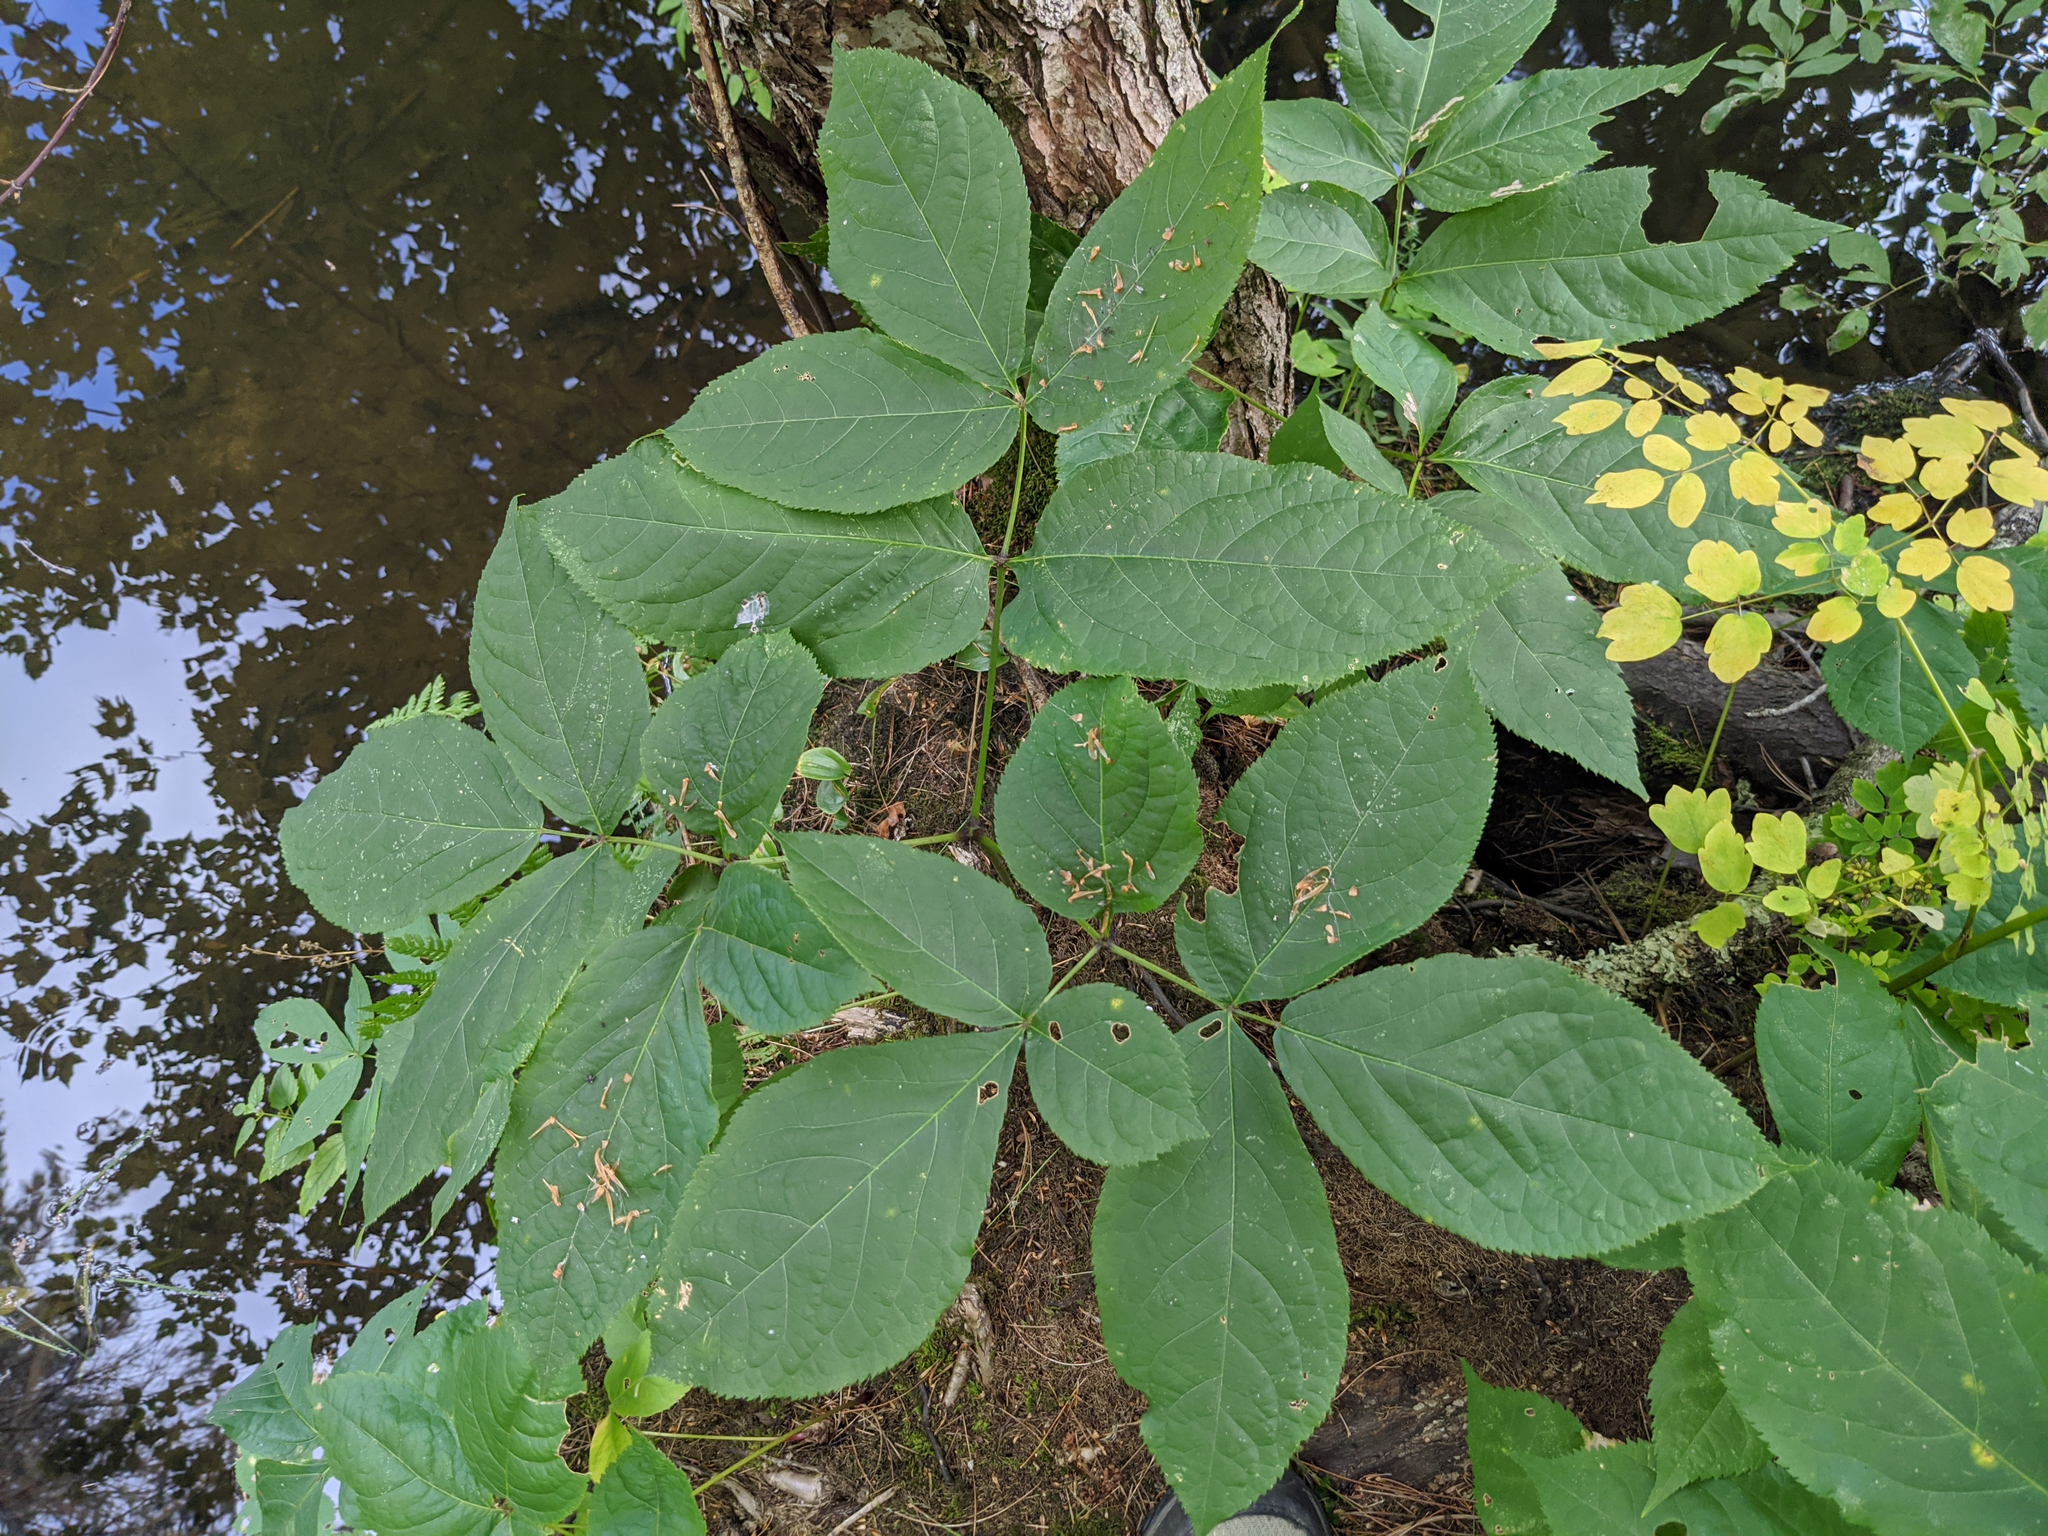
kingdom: Plantae
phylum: Tracheophyta
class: Magnoliopsida
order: Apiales
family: Araliaceae
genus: Aralia
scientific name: Aralia nudicaulis
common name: Wild sarsaparilla
